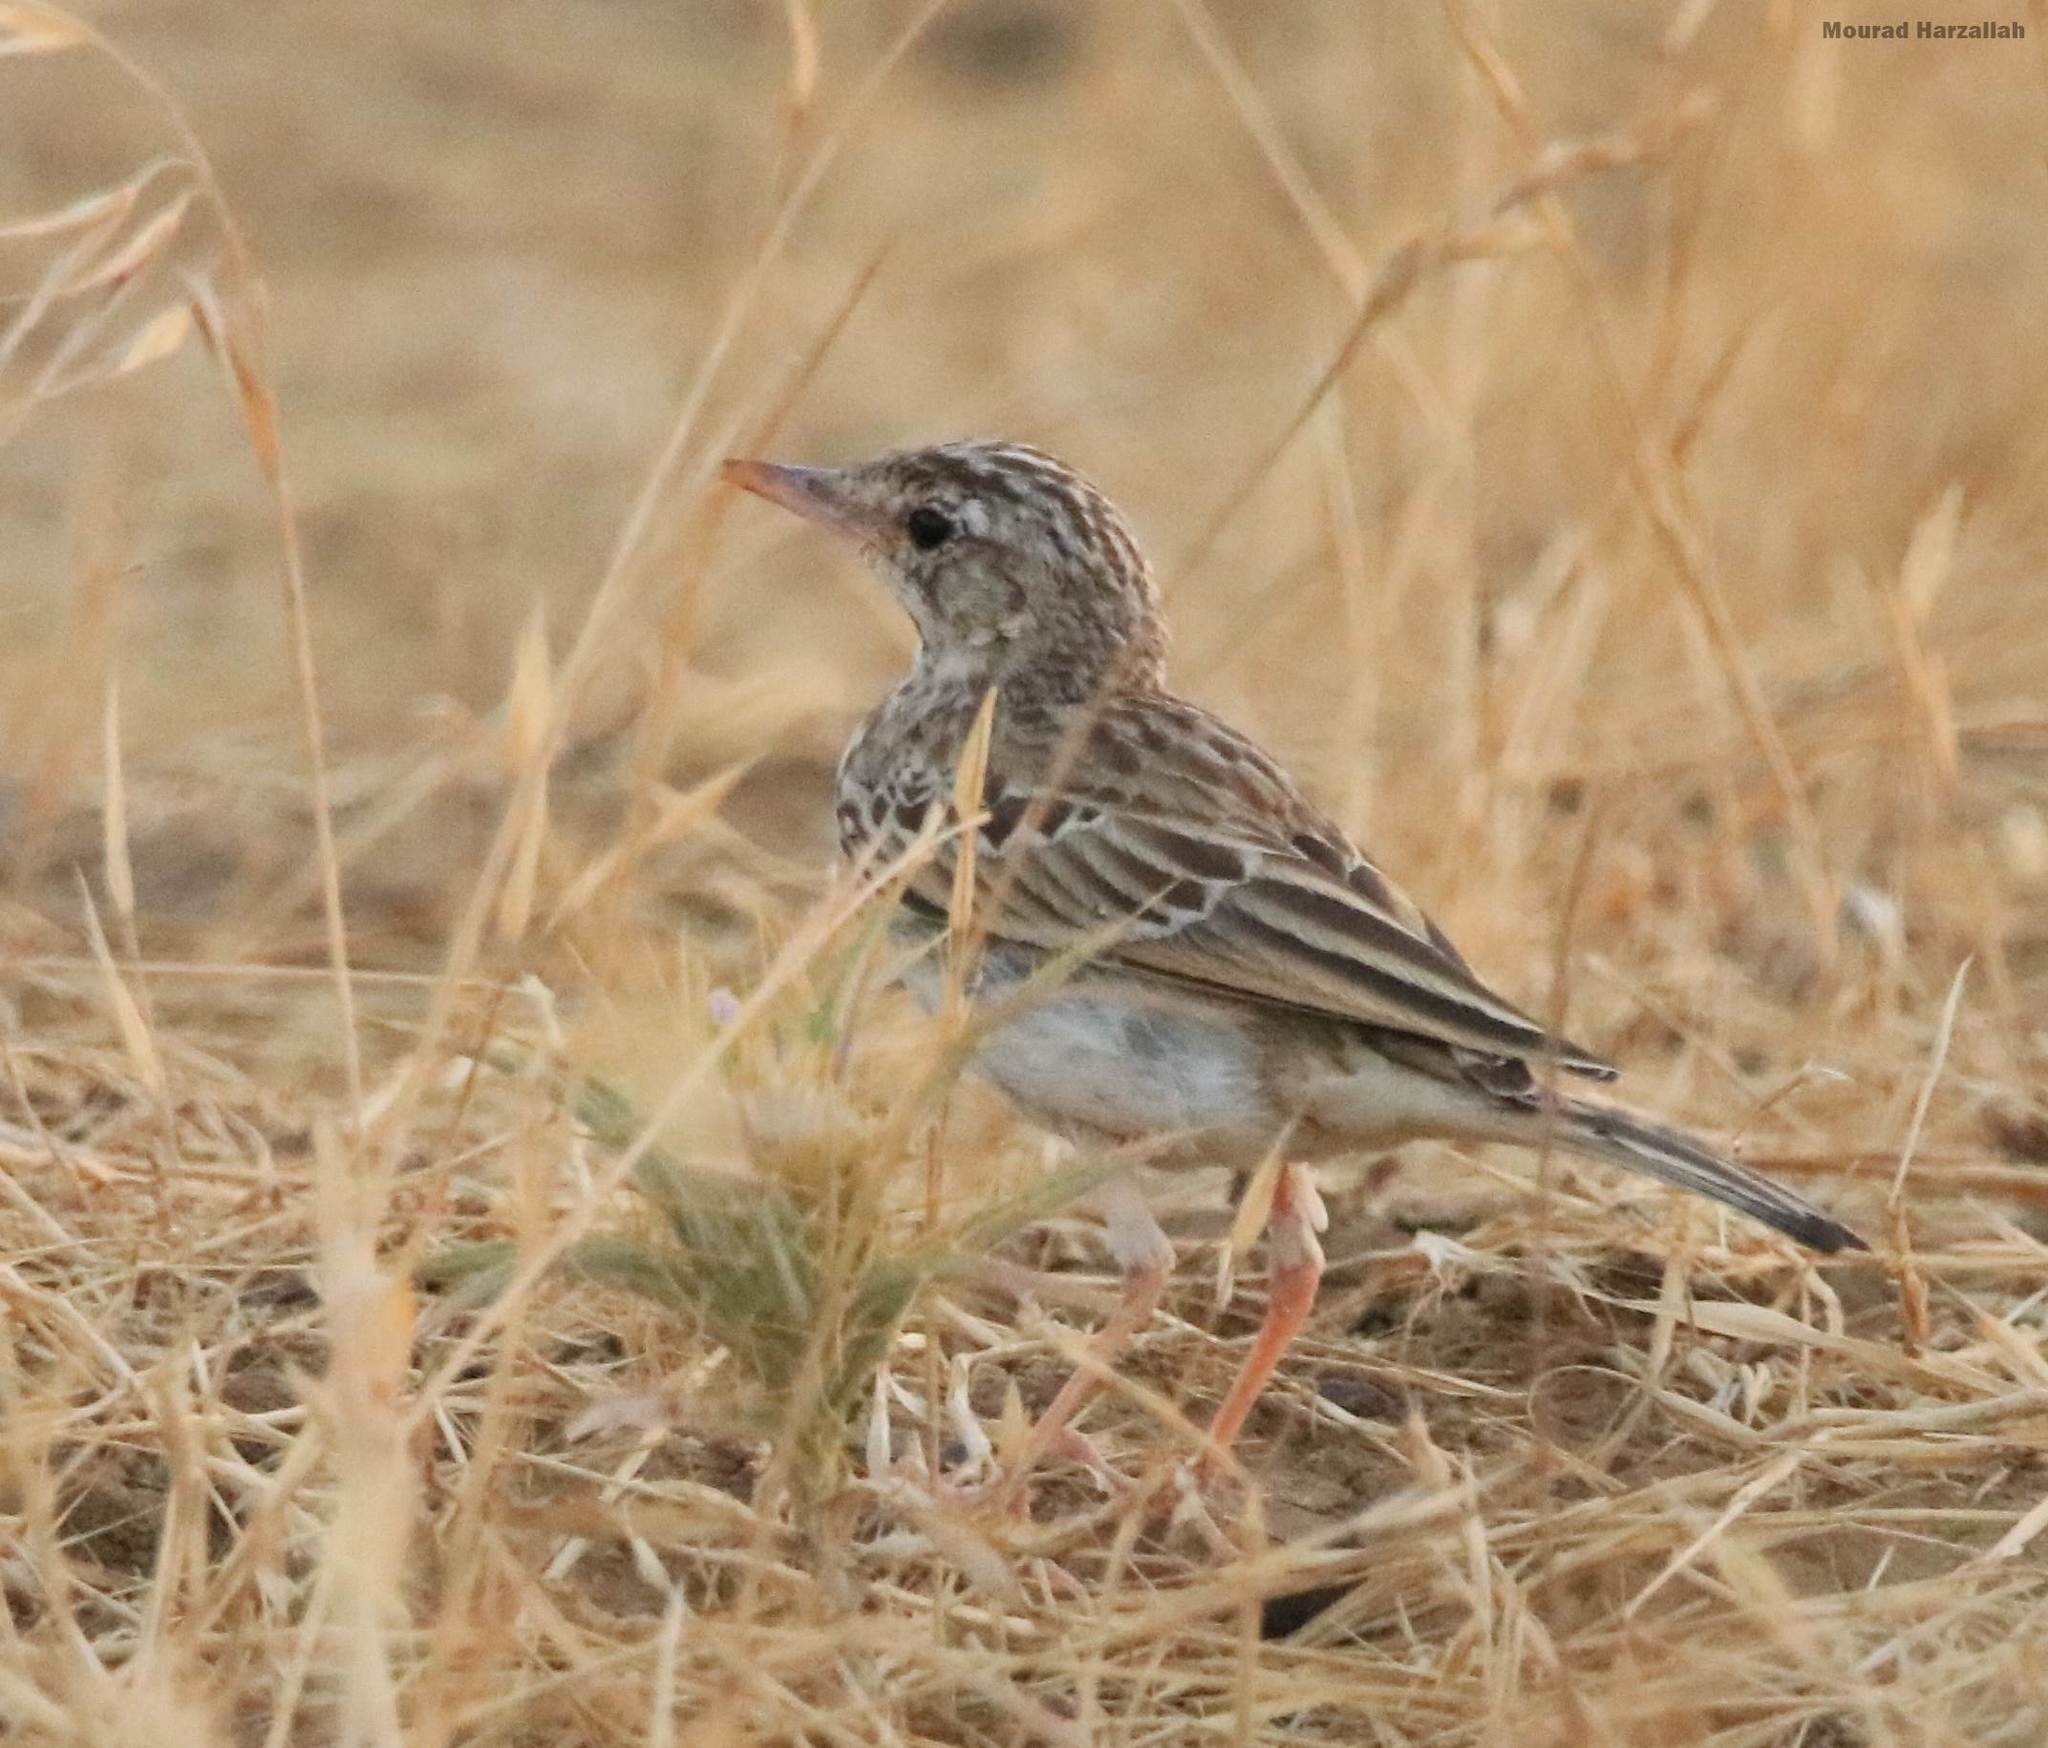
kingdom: Animalia
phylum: Chordata
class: Aves
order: Passeriformes
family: Motacillidae
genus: Anthus
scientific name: Anthus campestris
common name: Tawny pipit
